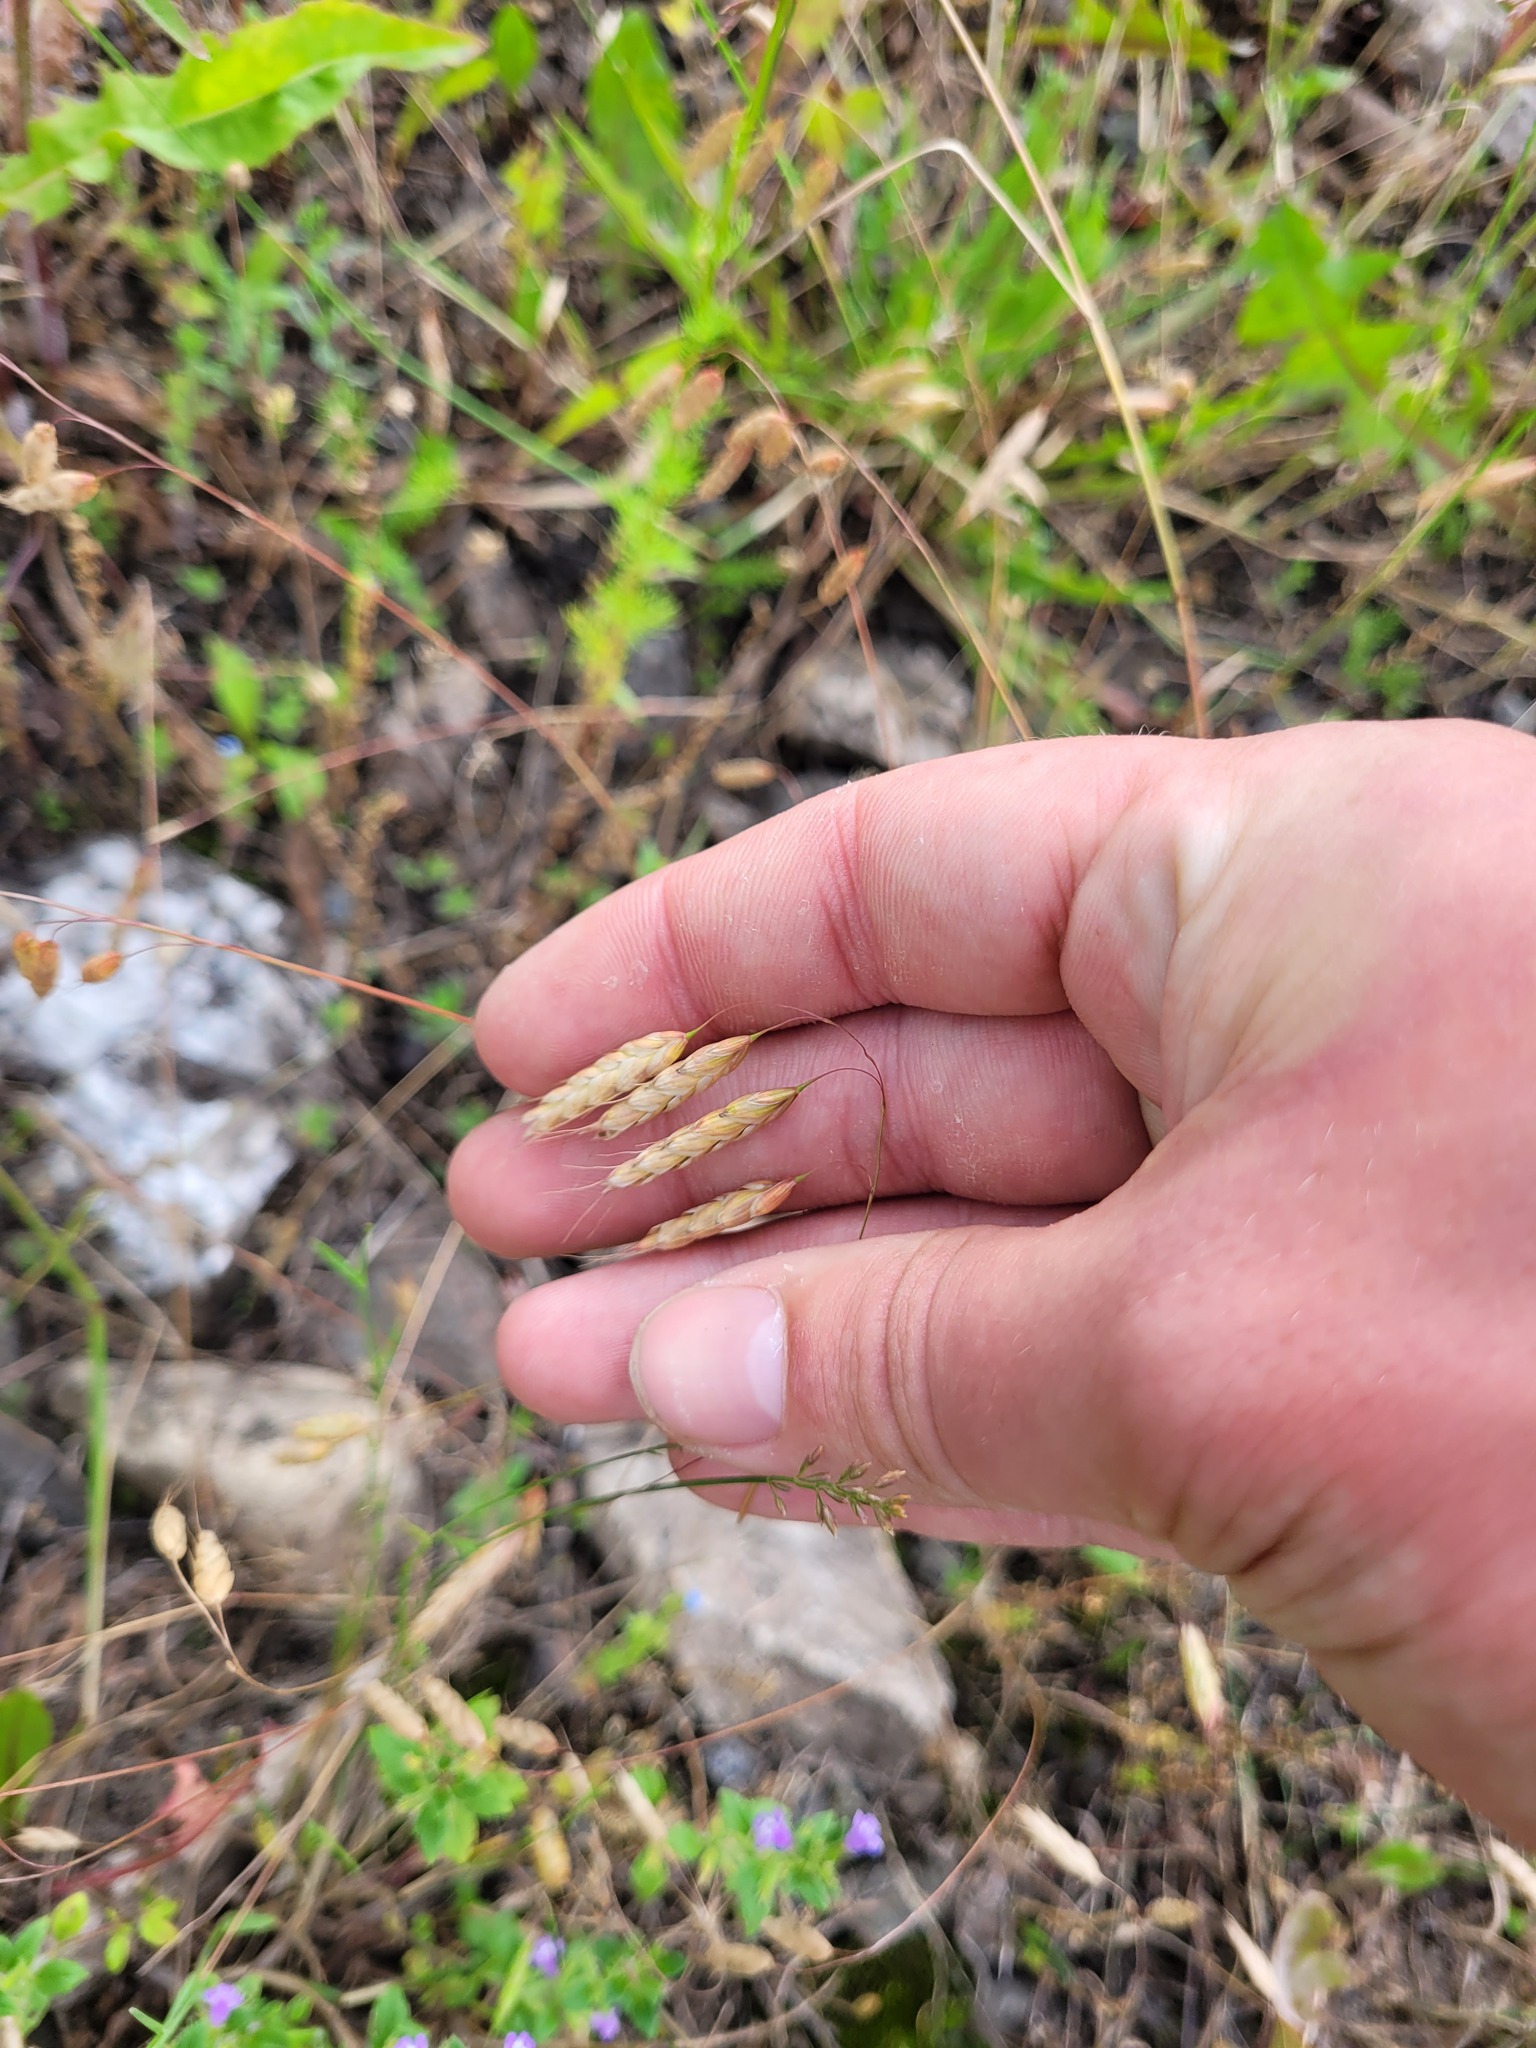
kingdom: Plantae
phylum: Tracheophyta
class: Liliopsida
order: Poales
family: Poaceae
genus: Bromus
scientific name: Bromus squarrosus
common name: Corn brome
